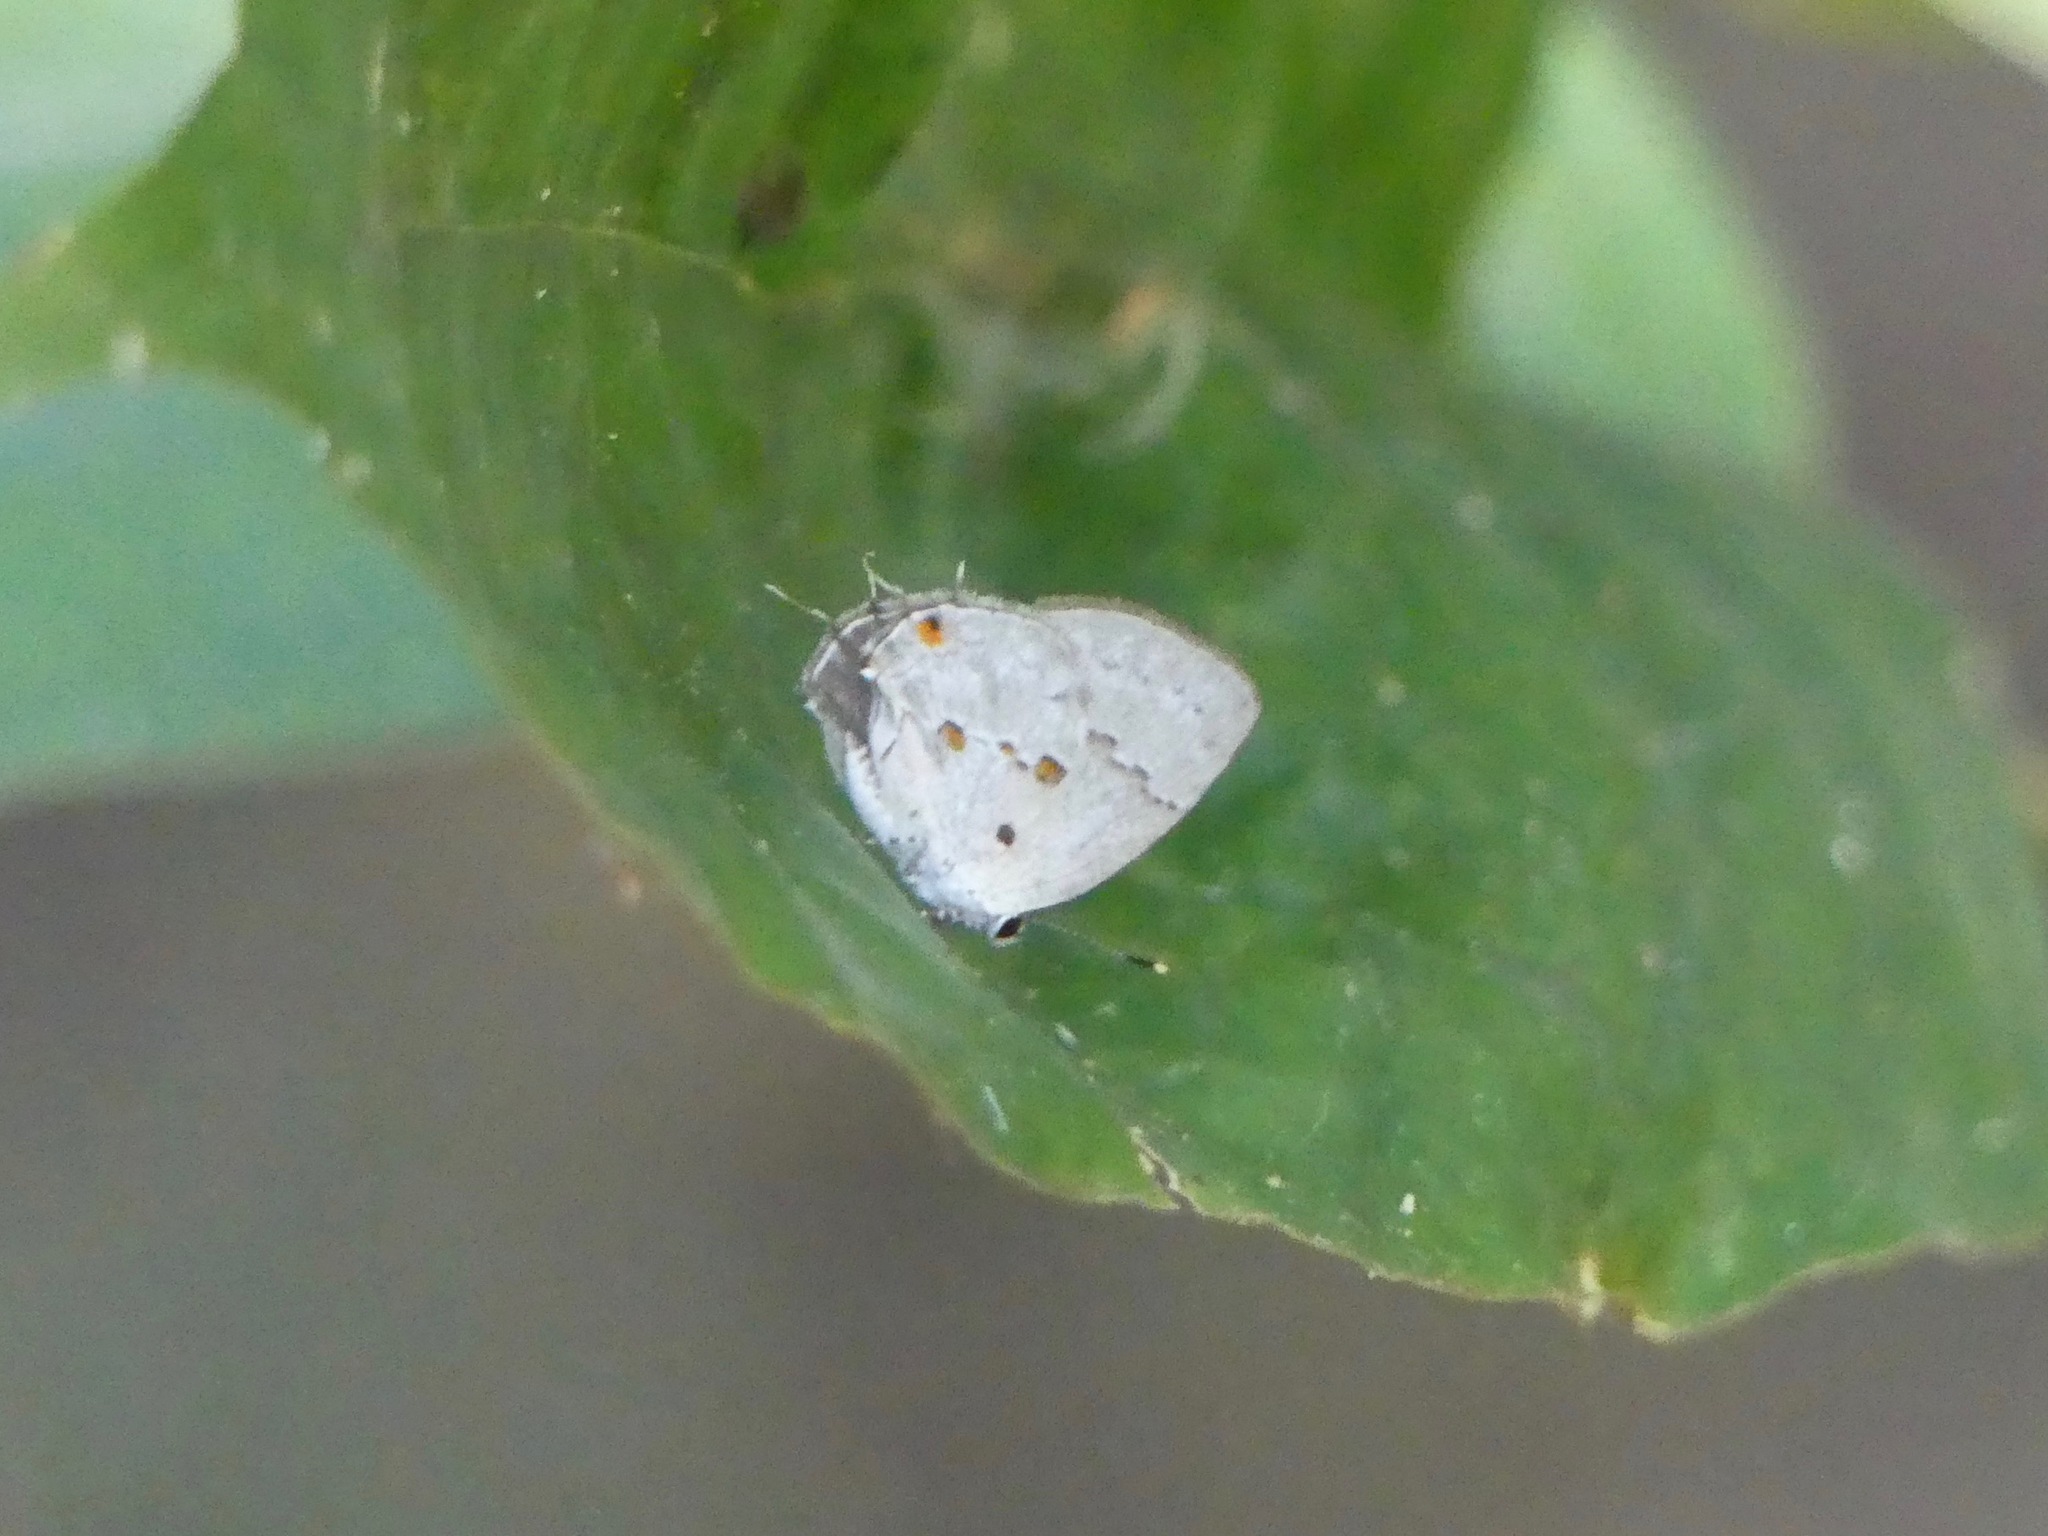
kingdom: Animalia
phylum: Arthropoda
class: Insecta
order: Lepidoptera
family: Lycaenidae
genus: Thecla
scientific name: Thecla celmus
